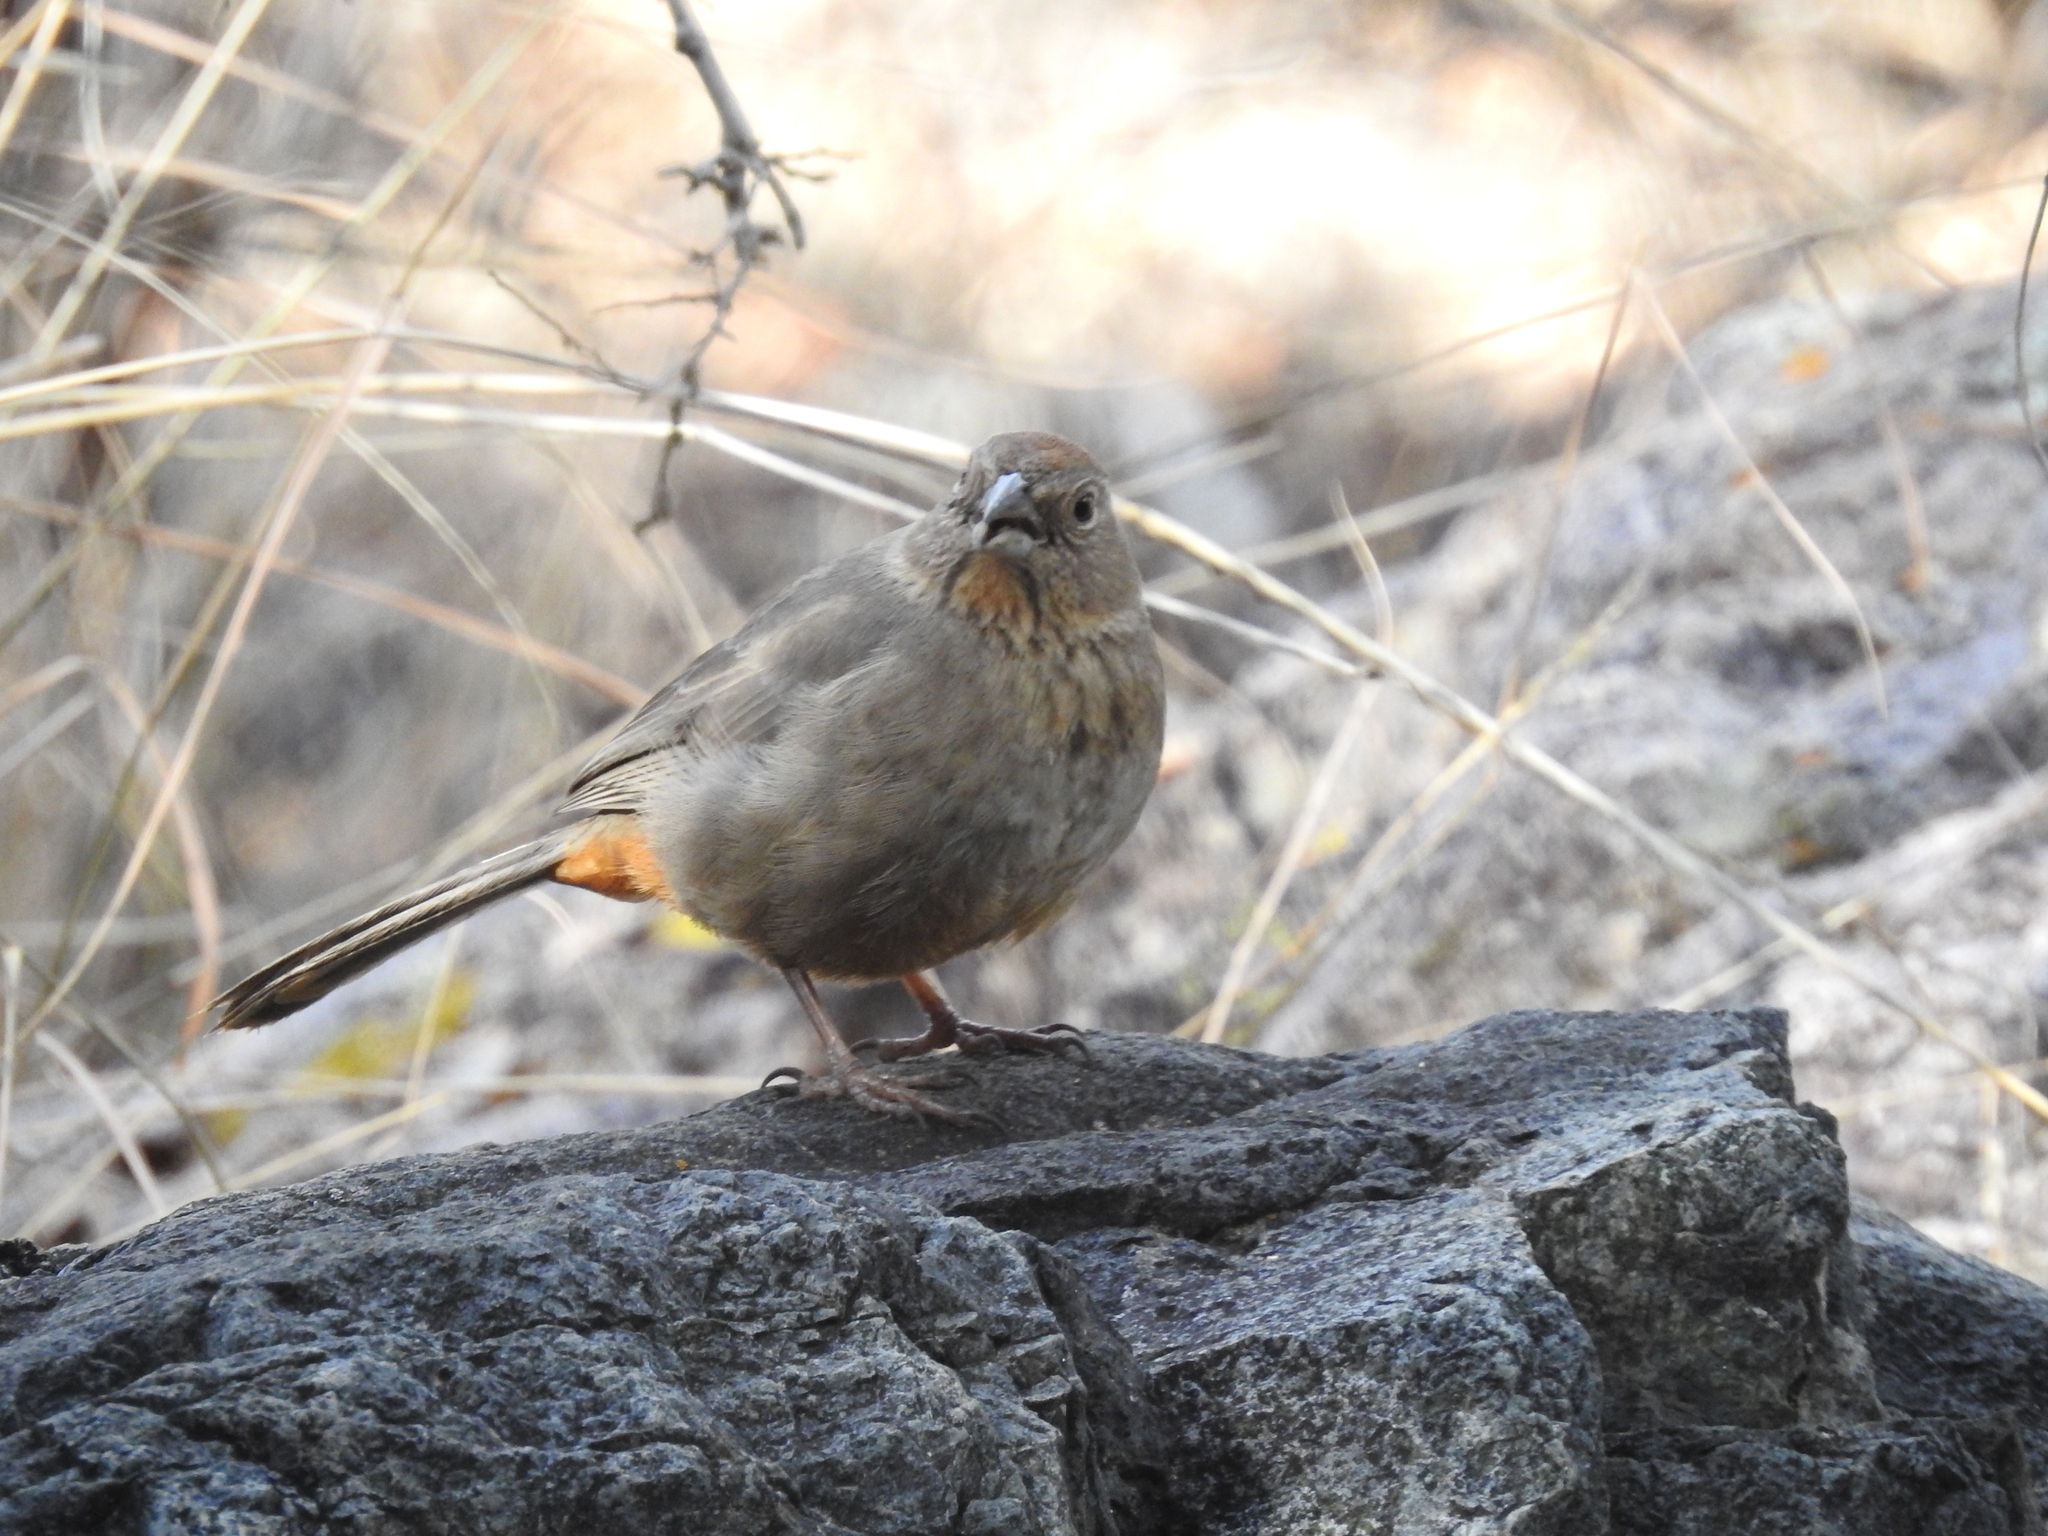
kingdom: Animalia
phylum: Chordata
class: Aves
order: Passeriformes
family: Passerellidae
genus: Melozone
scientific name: Melozone fusca
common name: Canyon towhee
